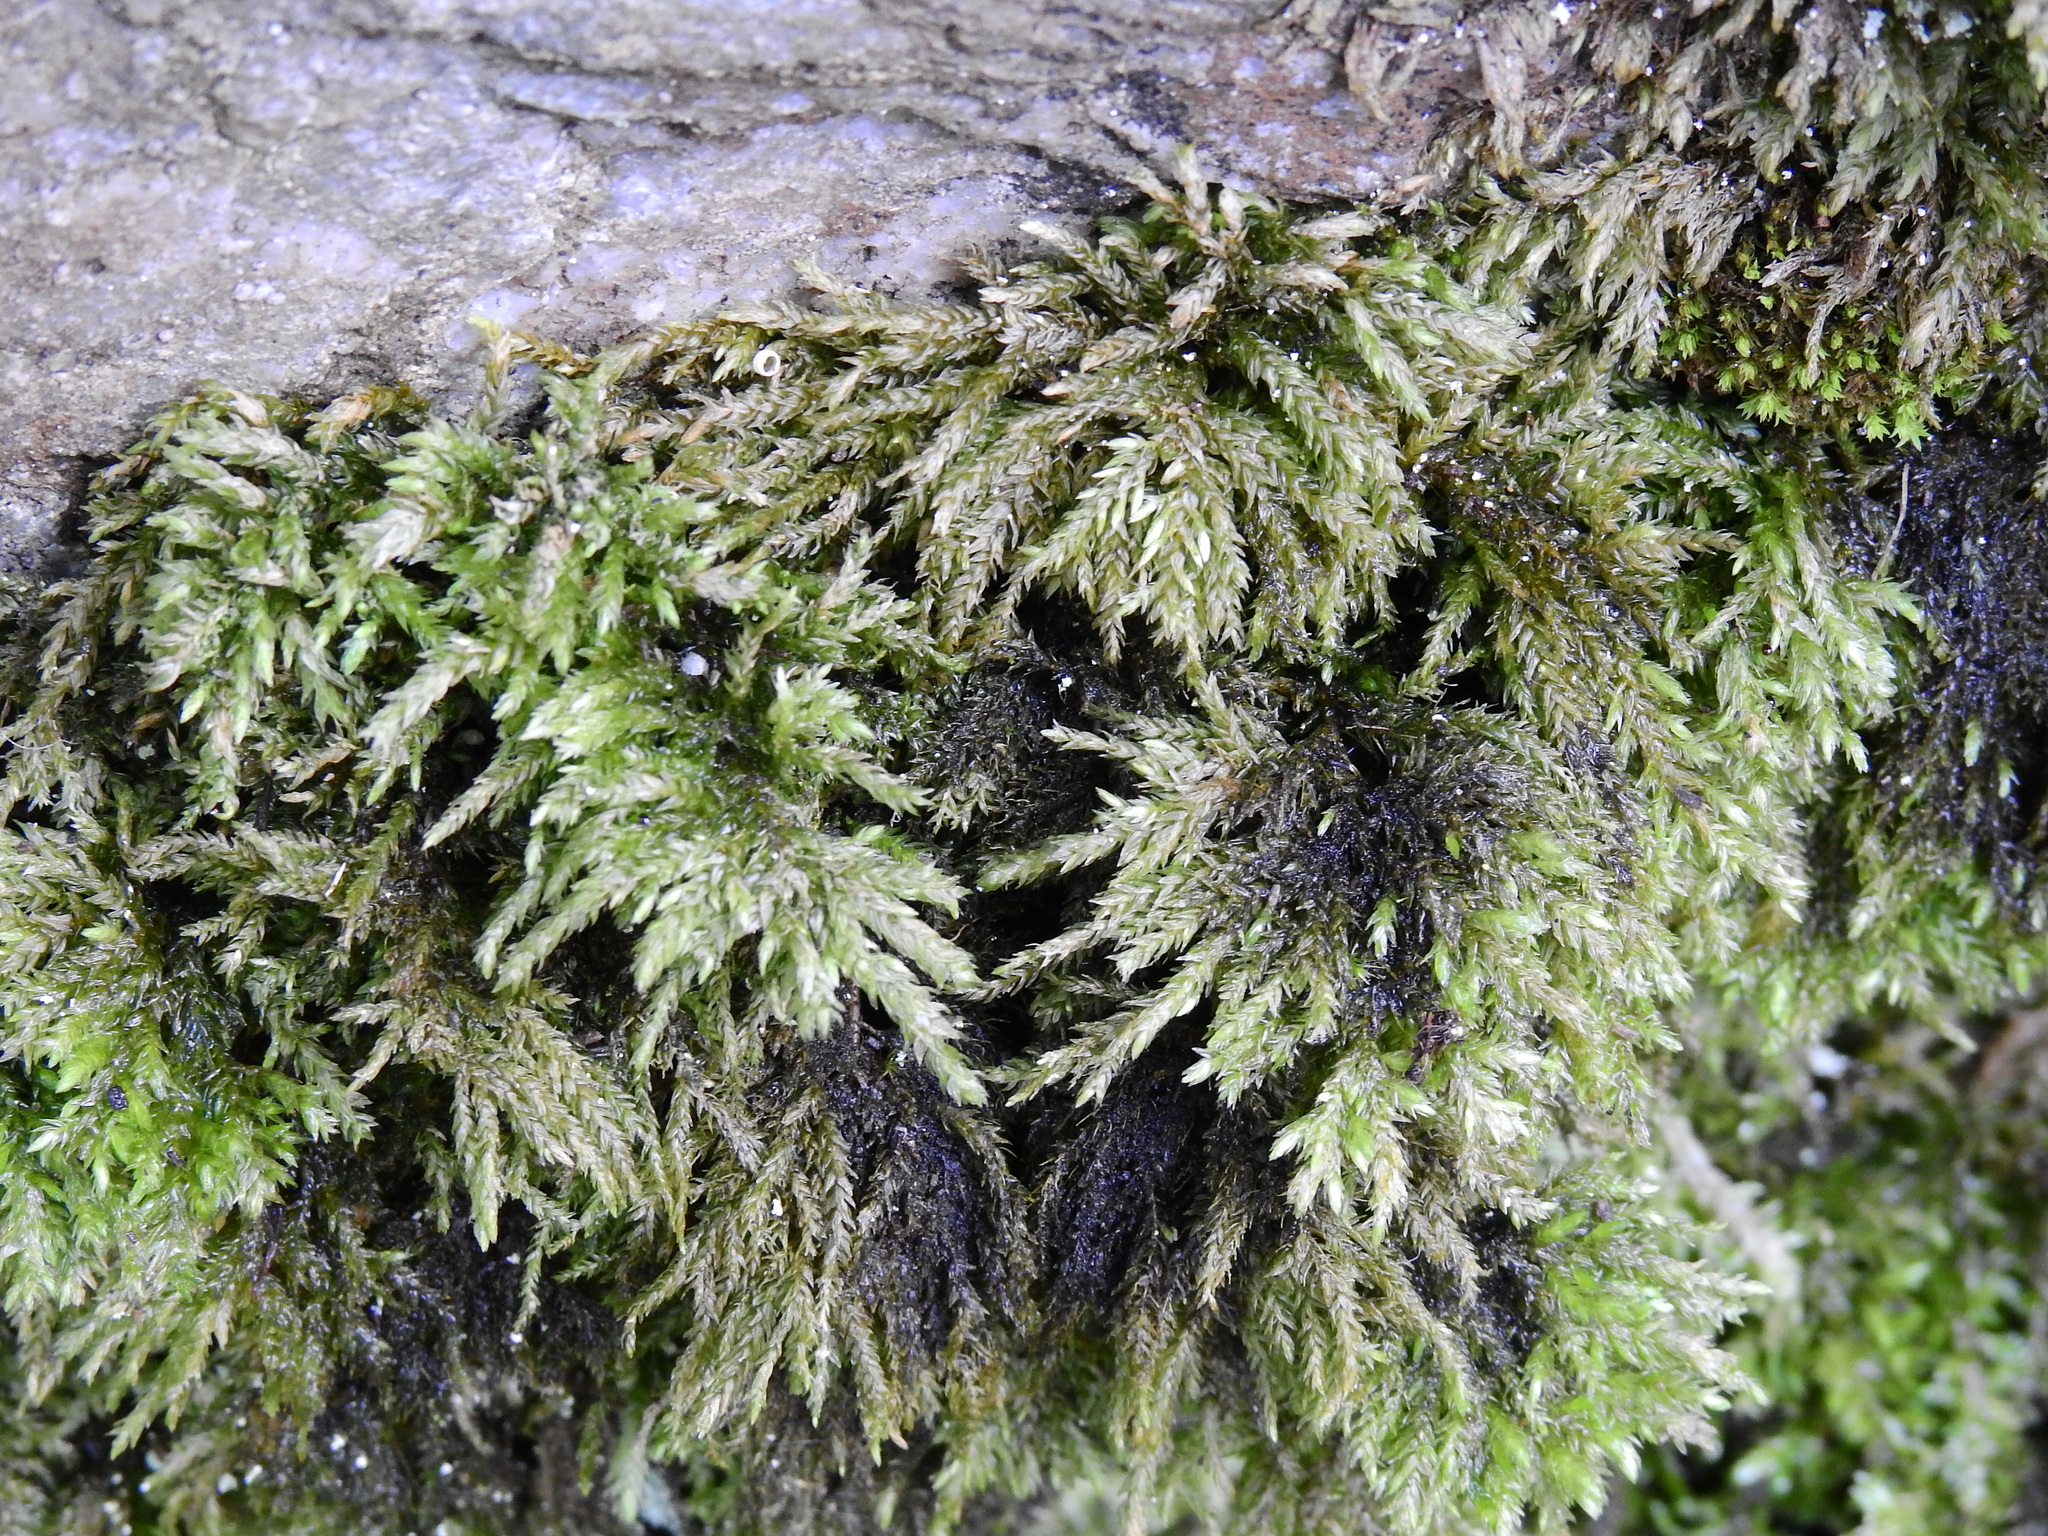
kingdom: Plantae
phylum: Bryophyta
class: Bryopsida
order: Hypnales
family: Neckeraceae
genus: Thamnobryum
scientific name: Thamnobryum alopecurum
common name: Fox-tail feather-moss
